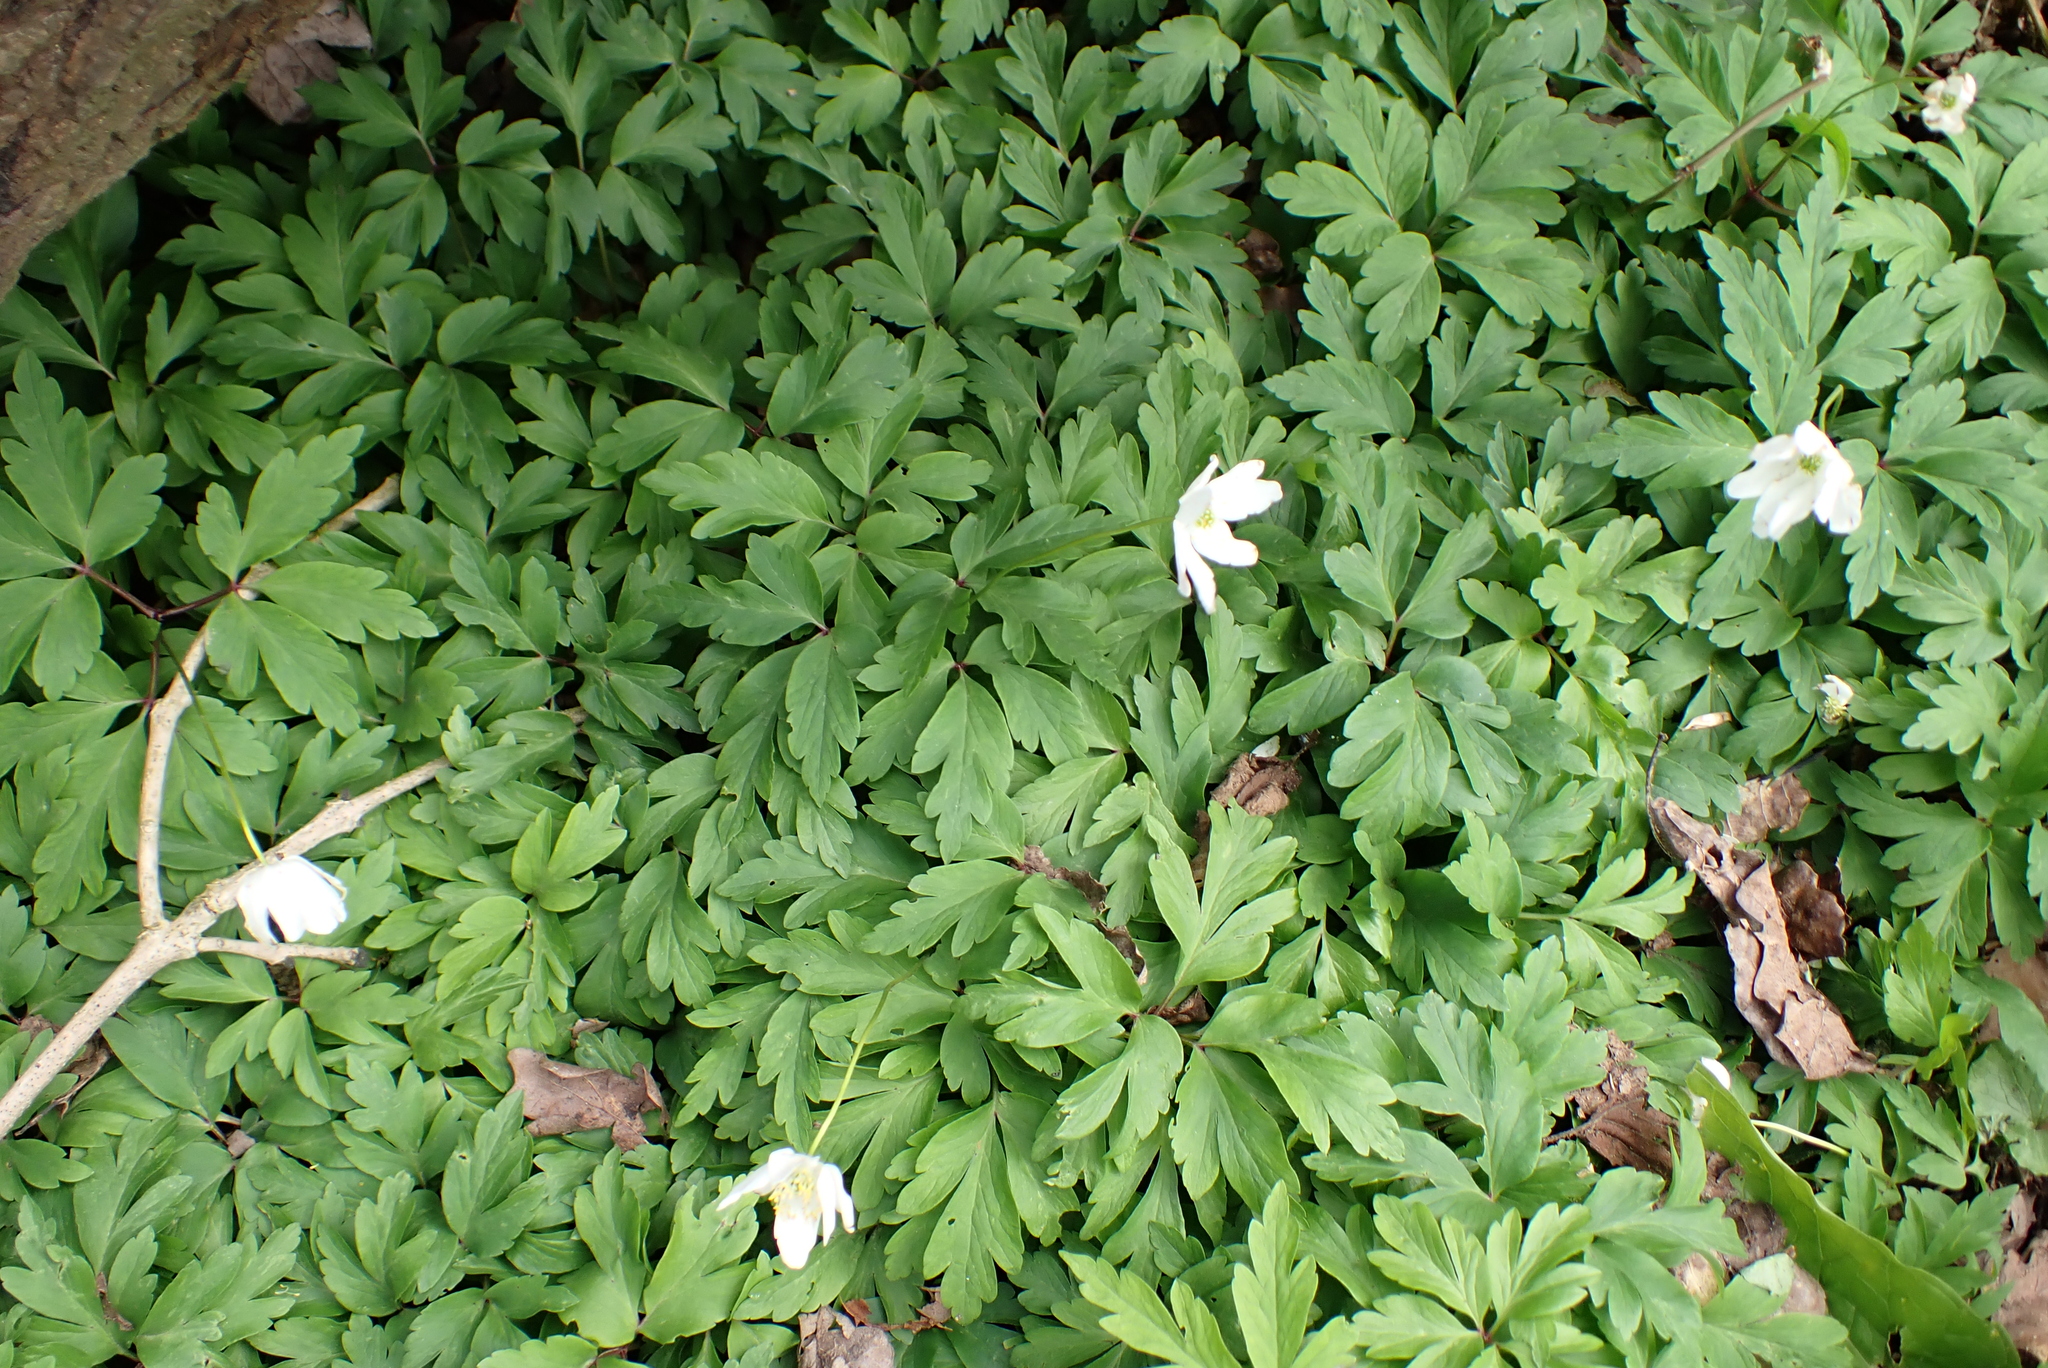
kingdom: Plantae
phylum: Tracheophyta
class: Magnoliopsida
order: Ranunculales
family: Ranunculaceae
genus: Anemone
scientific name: Anemone nemorosa
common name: Wood anemone
